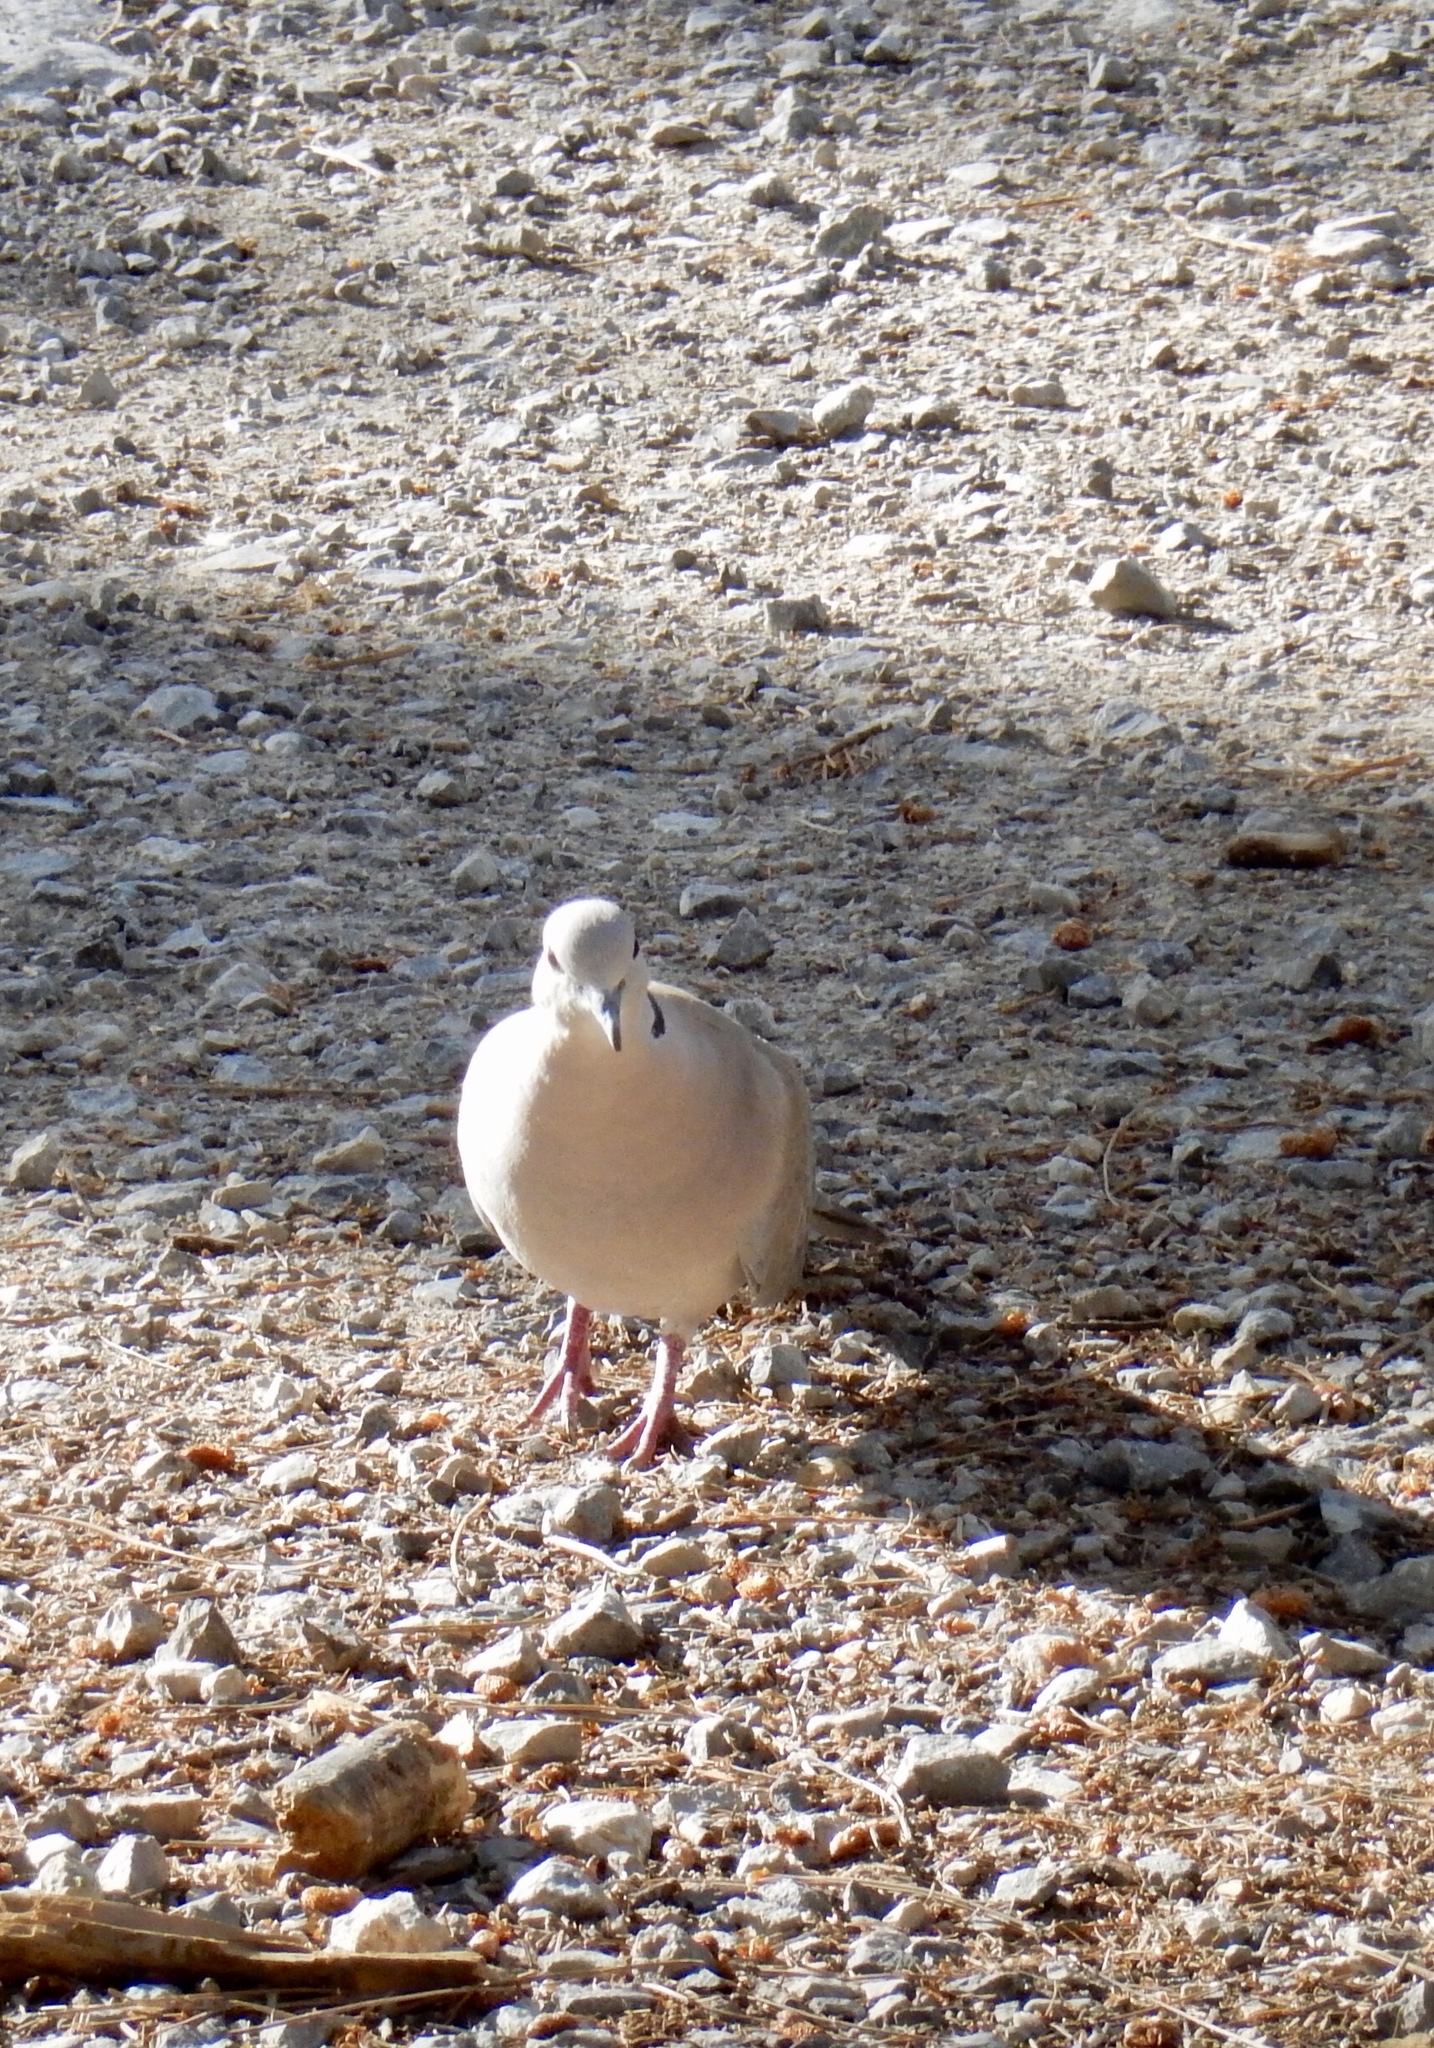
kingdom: Animalia
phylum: Chordata
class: Aves
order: Columbiformes
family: Columbidae
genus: Streptopelia
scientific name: Streptopelia decaocto
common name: Eurasian collared dove
